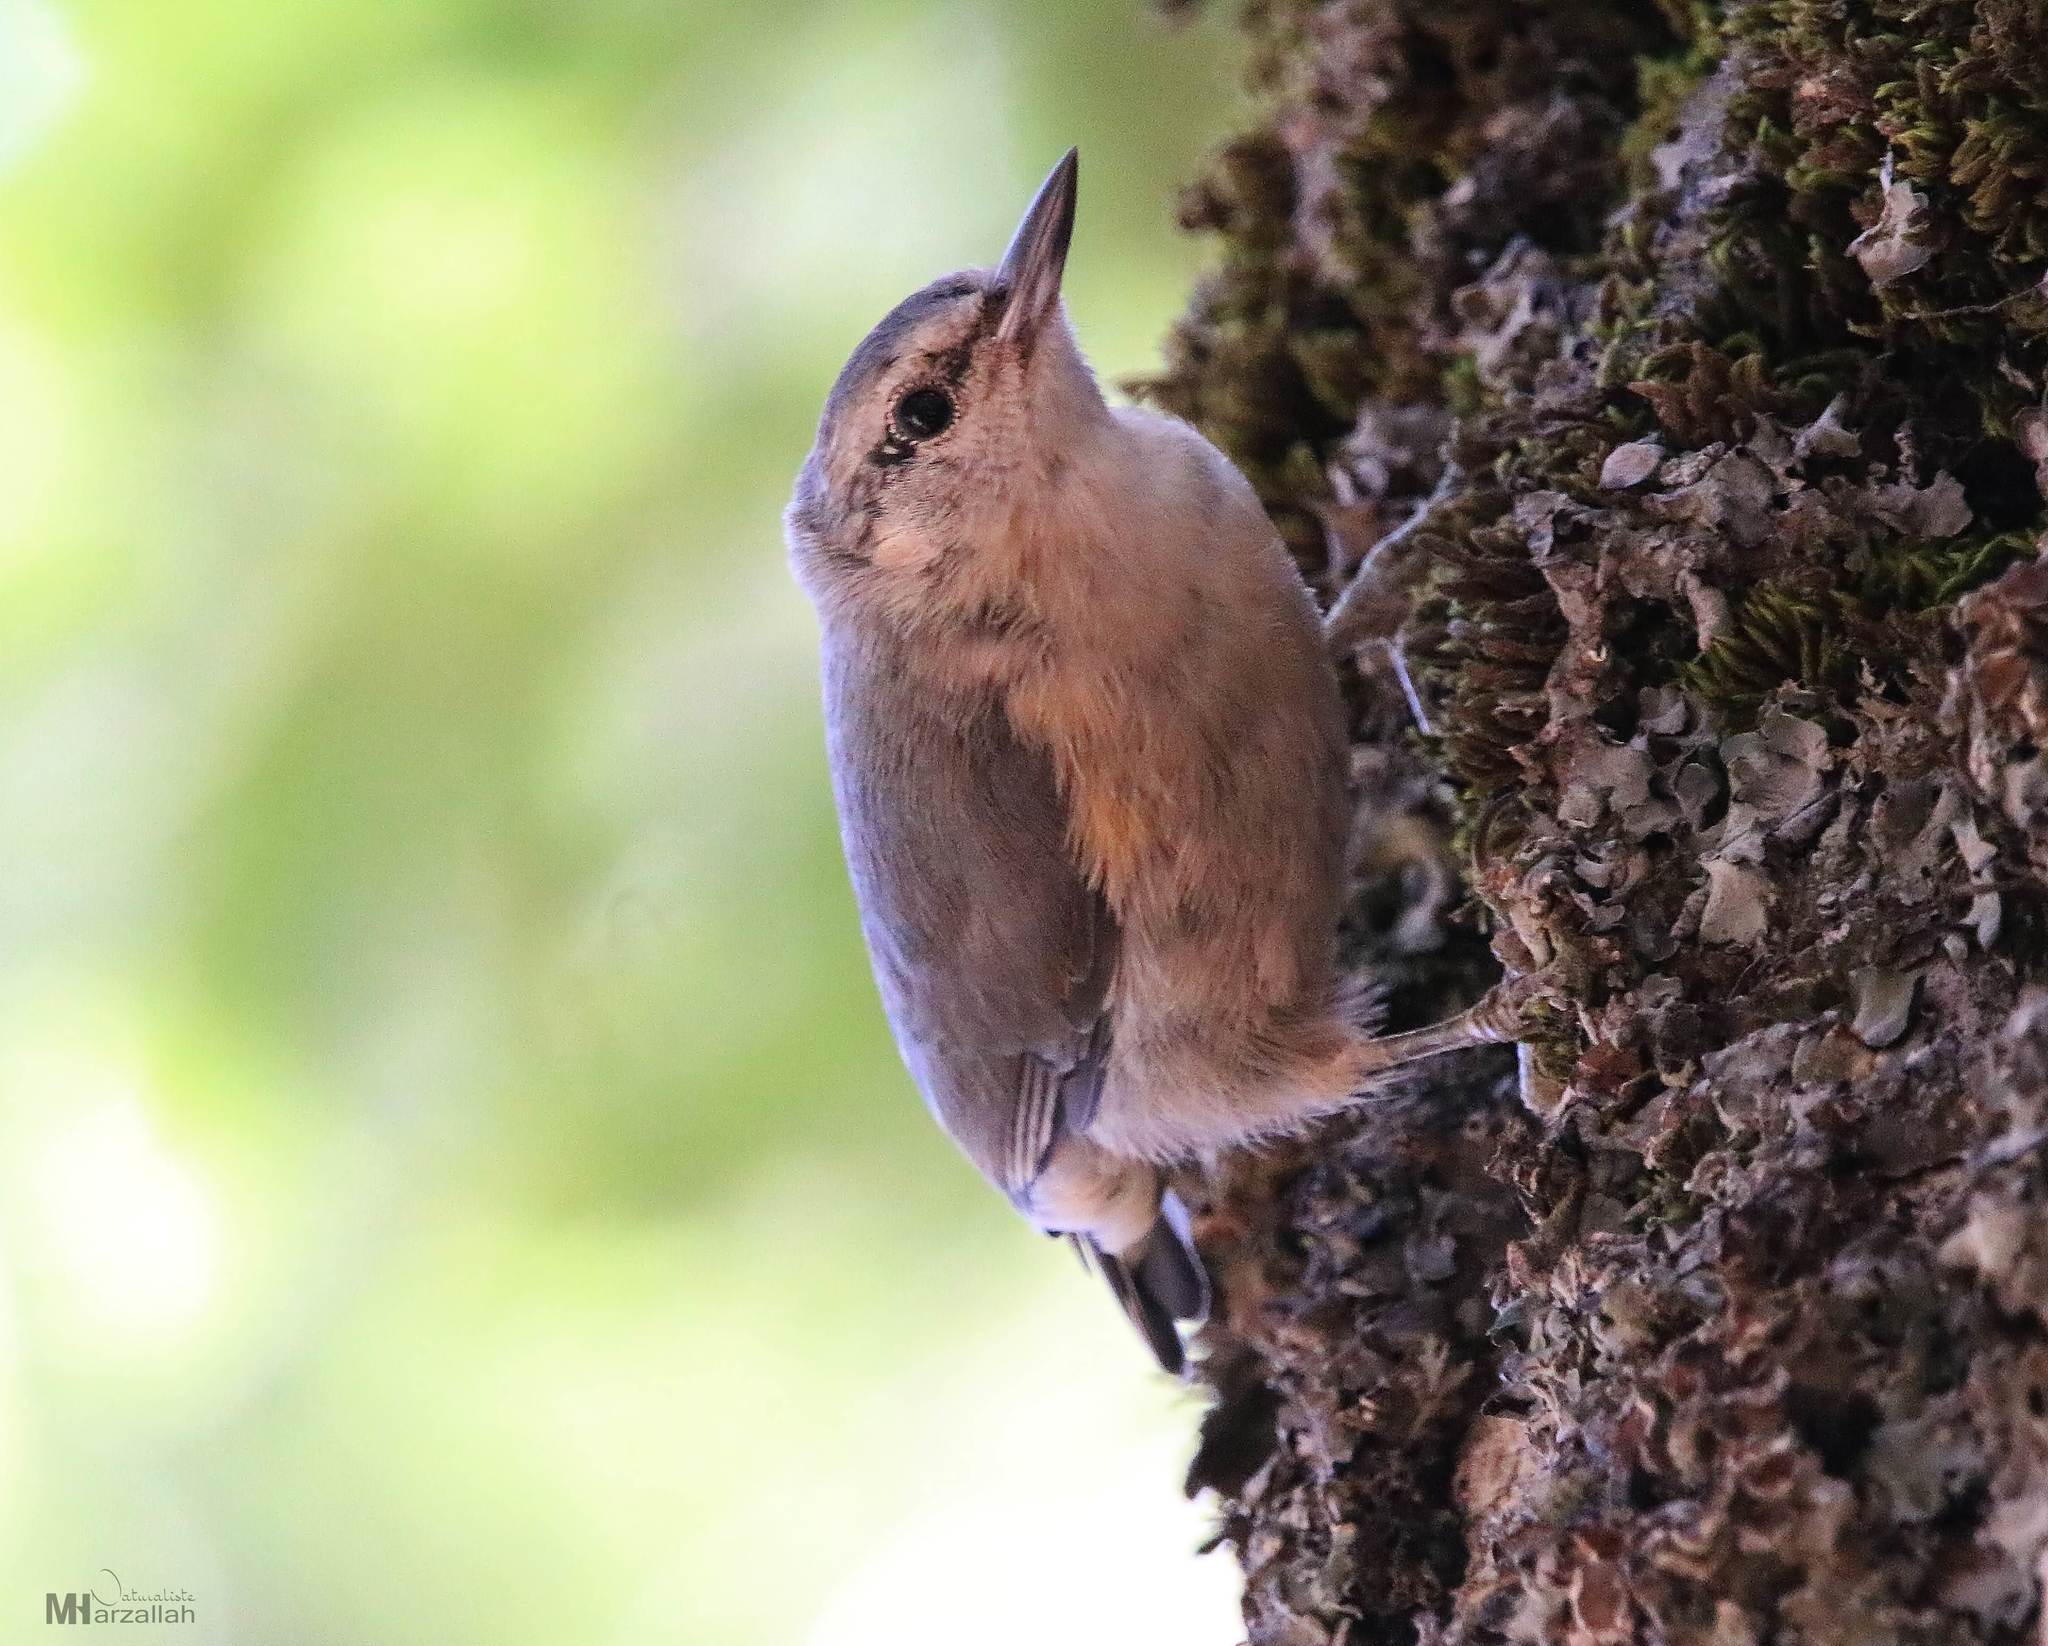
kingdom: Animalia
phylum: Chordata
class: Aves
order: Passeriformes
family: Sittidae
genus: Sitta
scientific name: Sitta ledanti
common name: Algerian nuthatch
